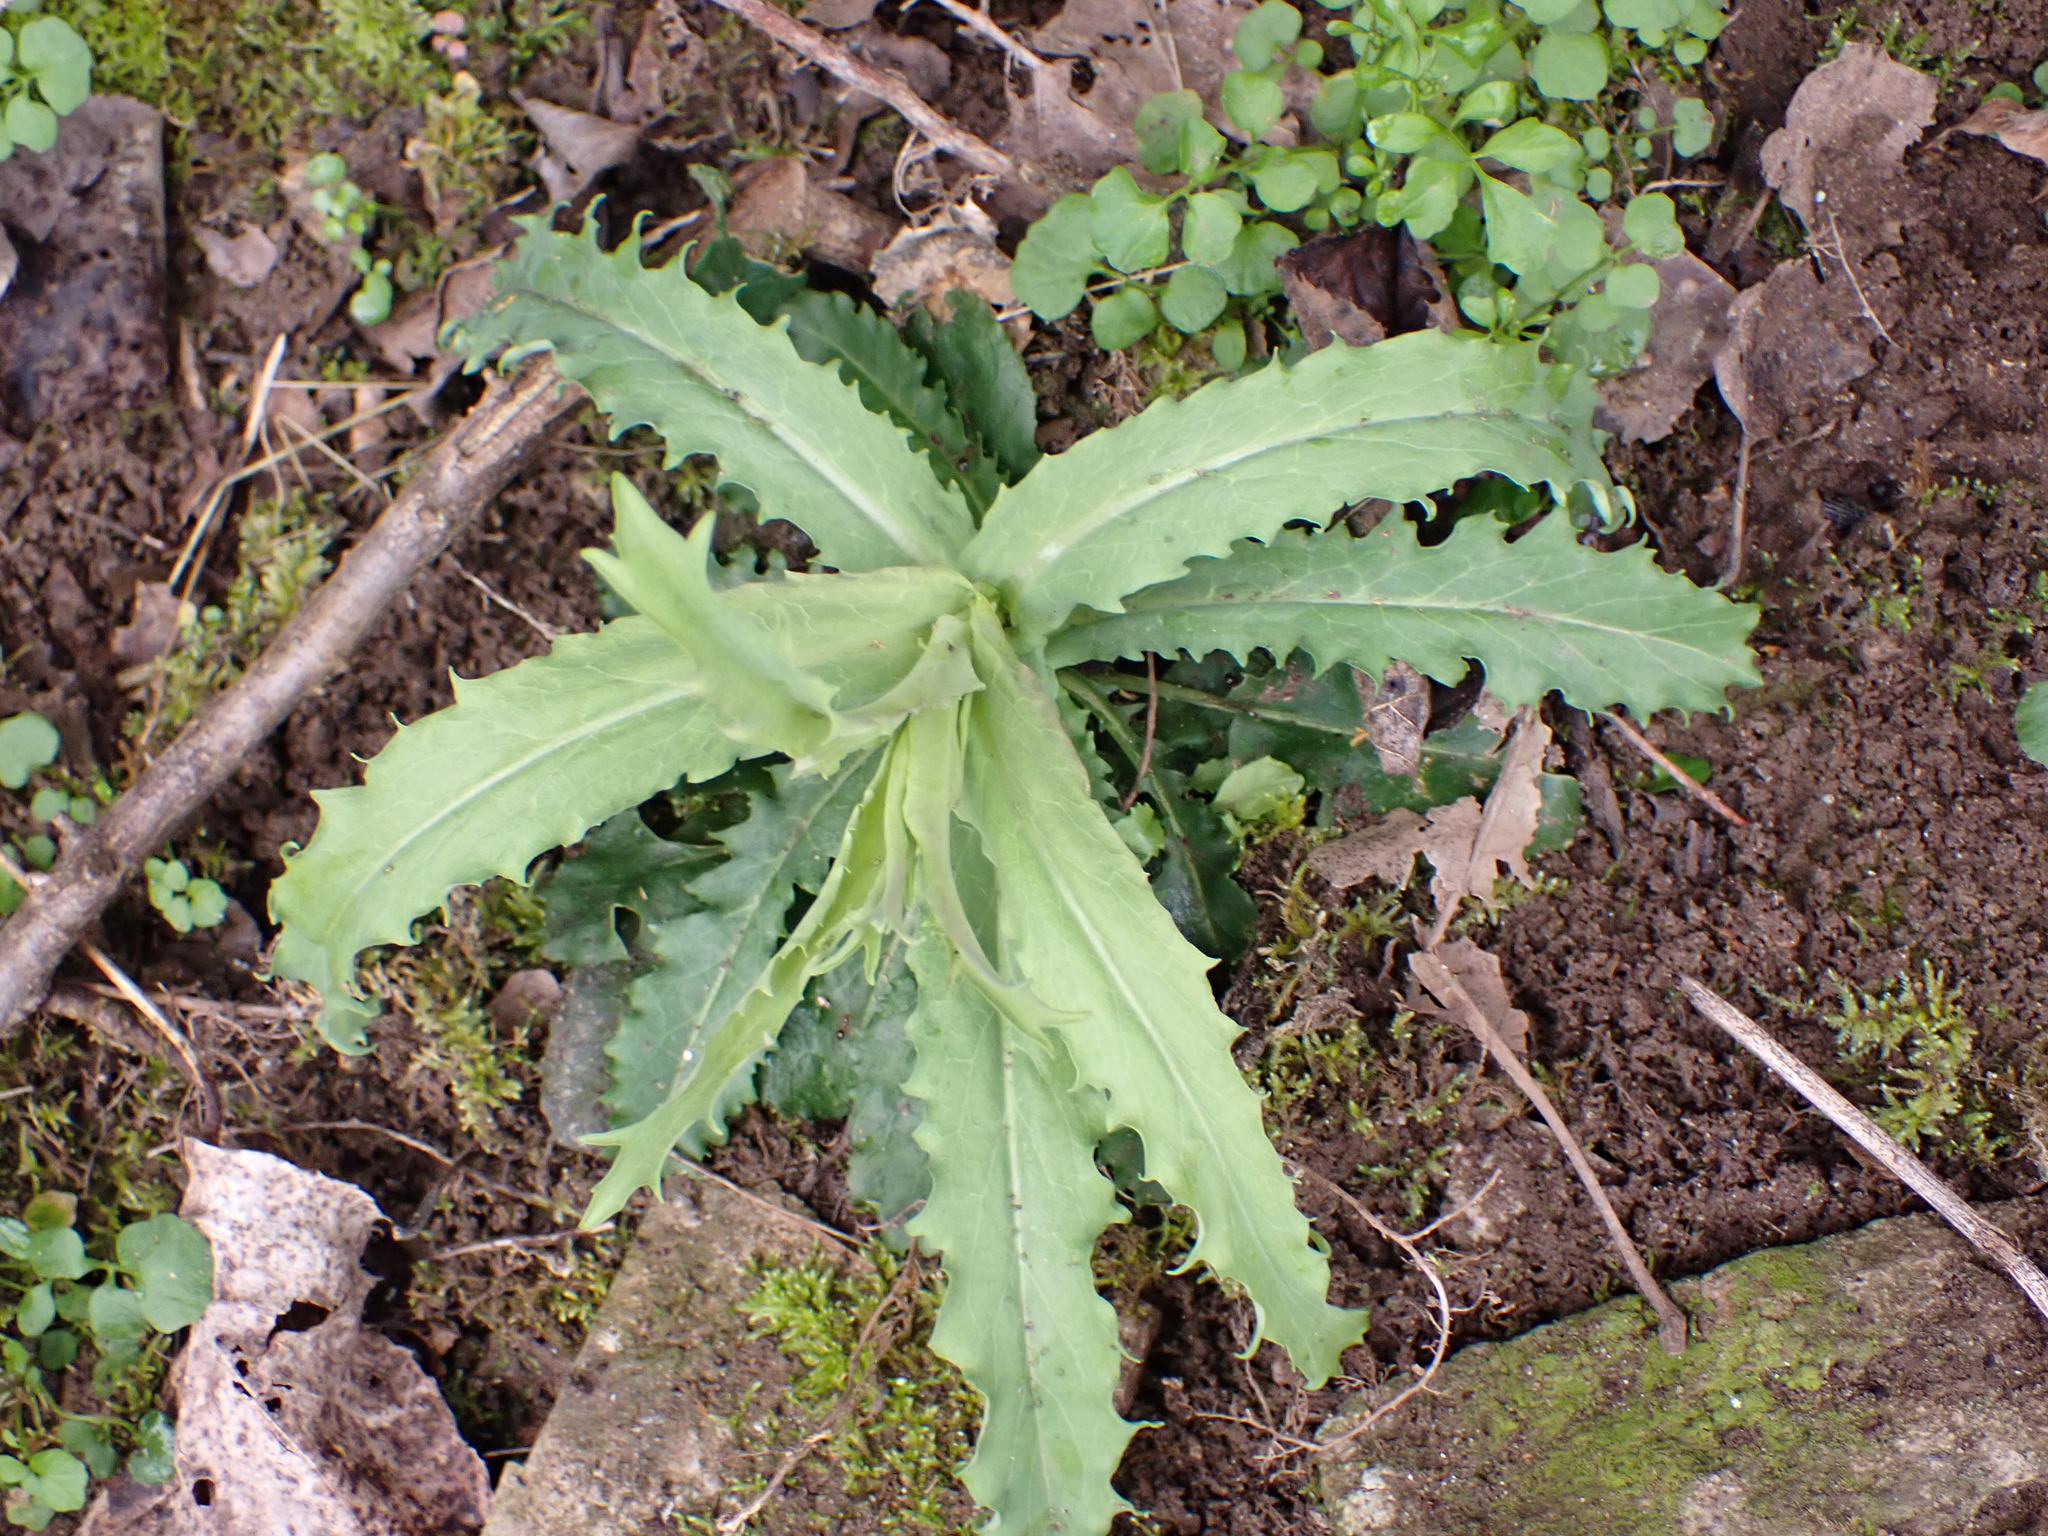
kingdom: Plantae
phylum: Tracheophyta
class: Magnoliopsida
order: Brassicales
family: Brassicaceae
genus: Borodinia
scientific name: Borodinia laevigata
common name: Smooth rockcress
